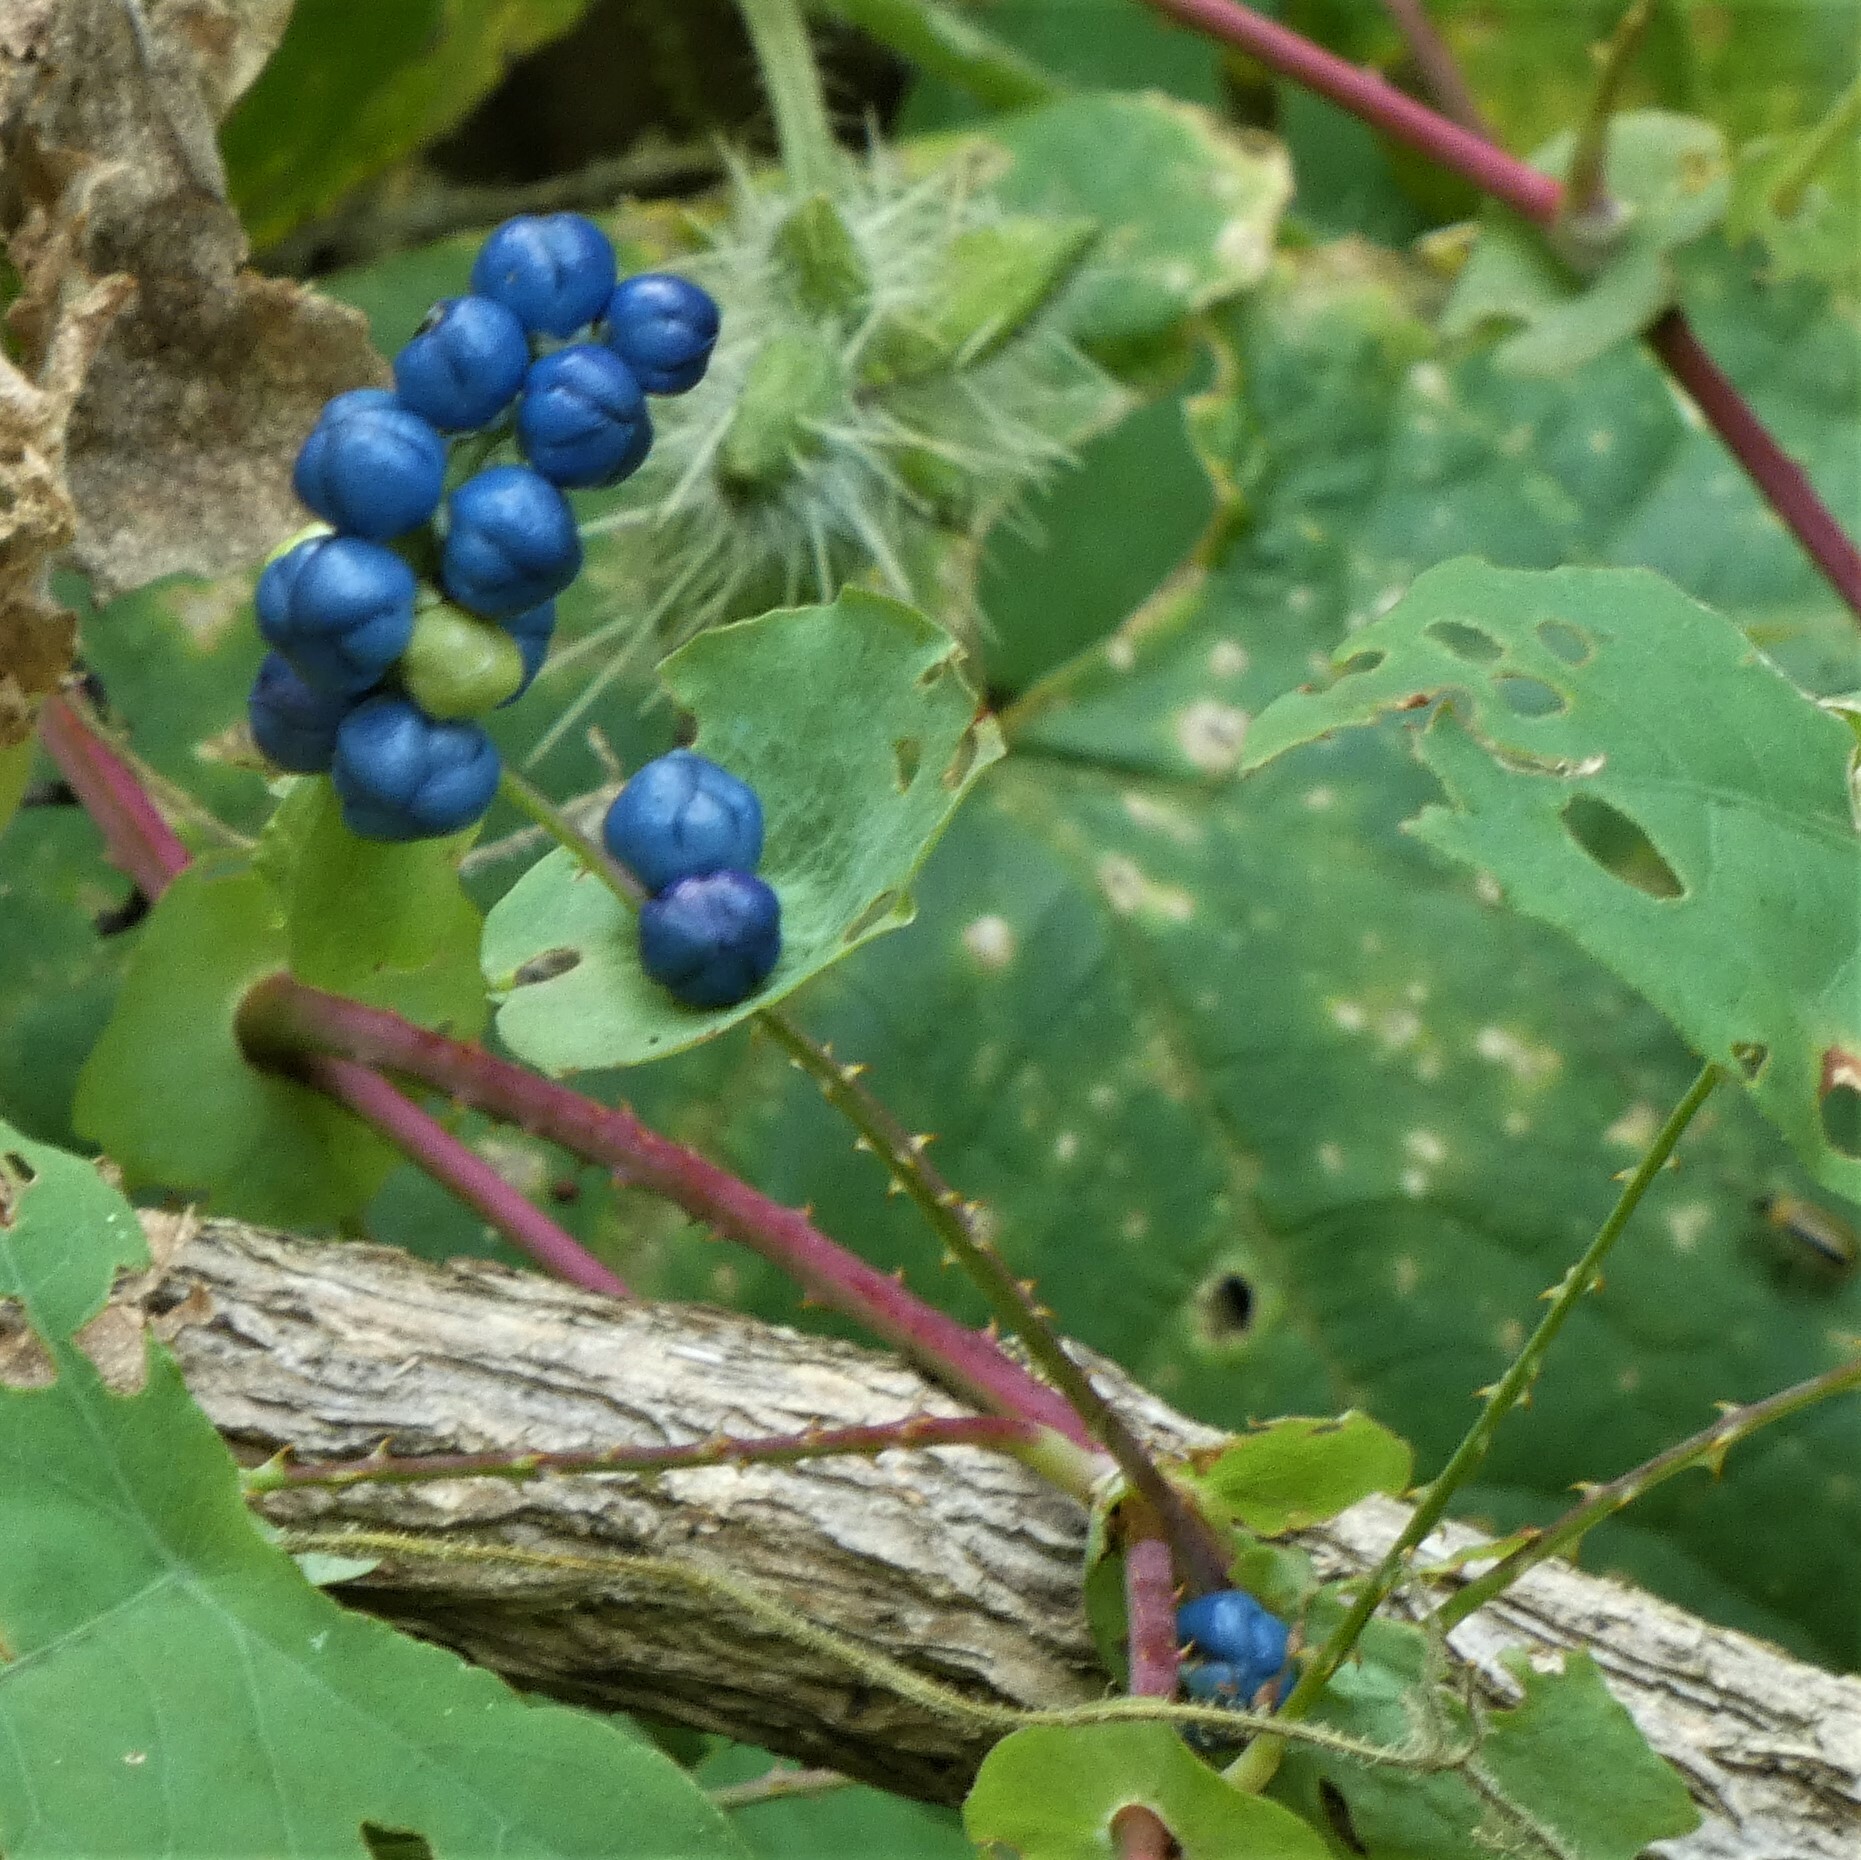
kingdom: Plantae
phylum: Tracheophyta
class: Magnoliopsida
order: Caryophyllales
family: Polygonaceae
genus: Persicaria
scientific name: Persicaria perfoliata
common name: Asiatic tearthumb
